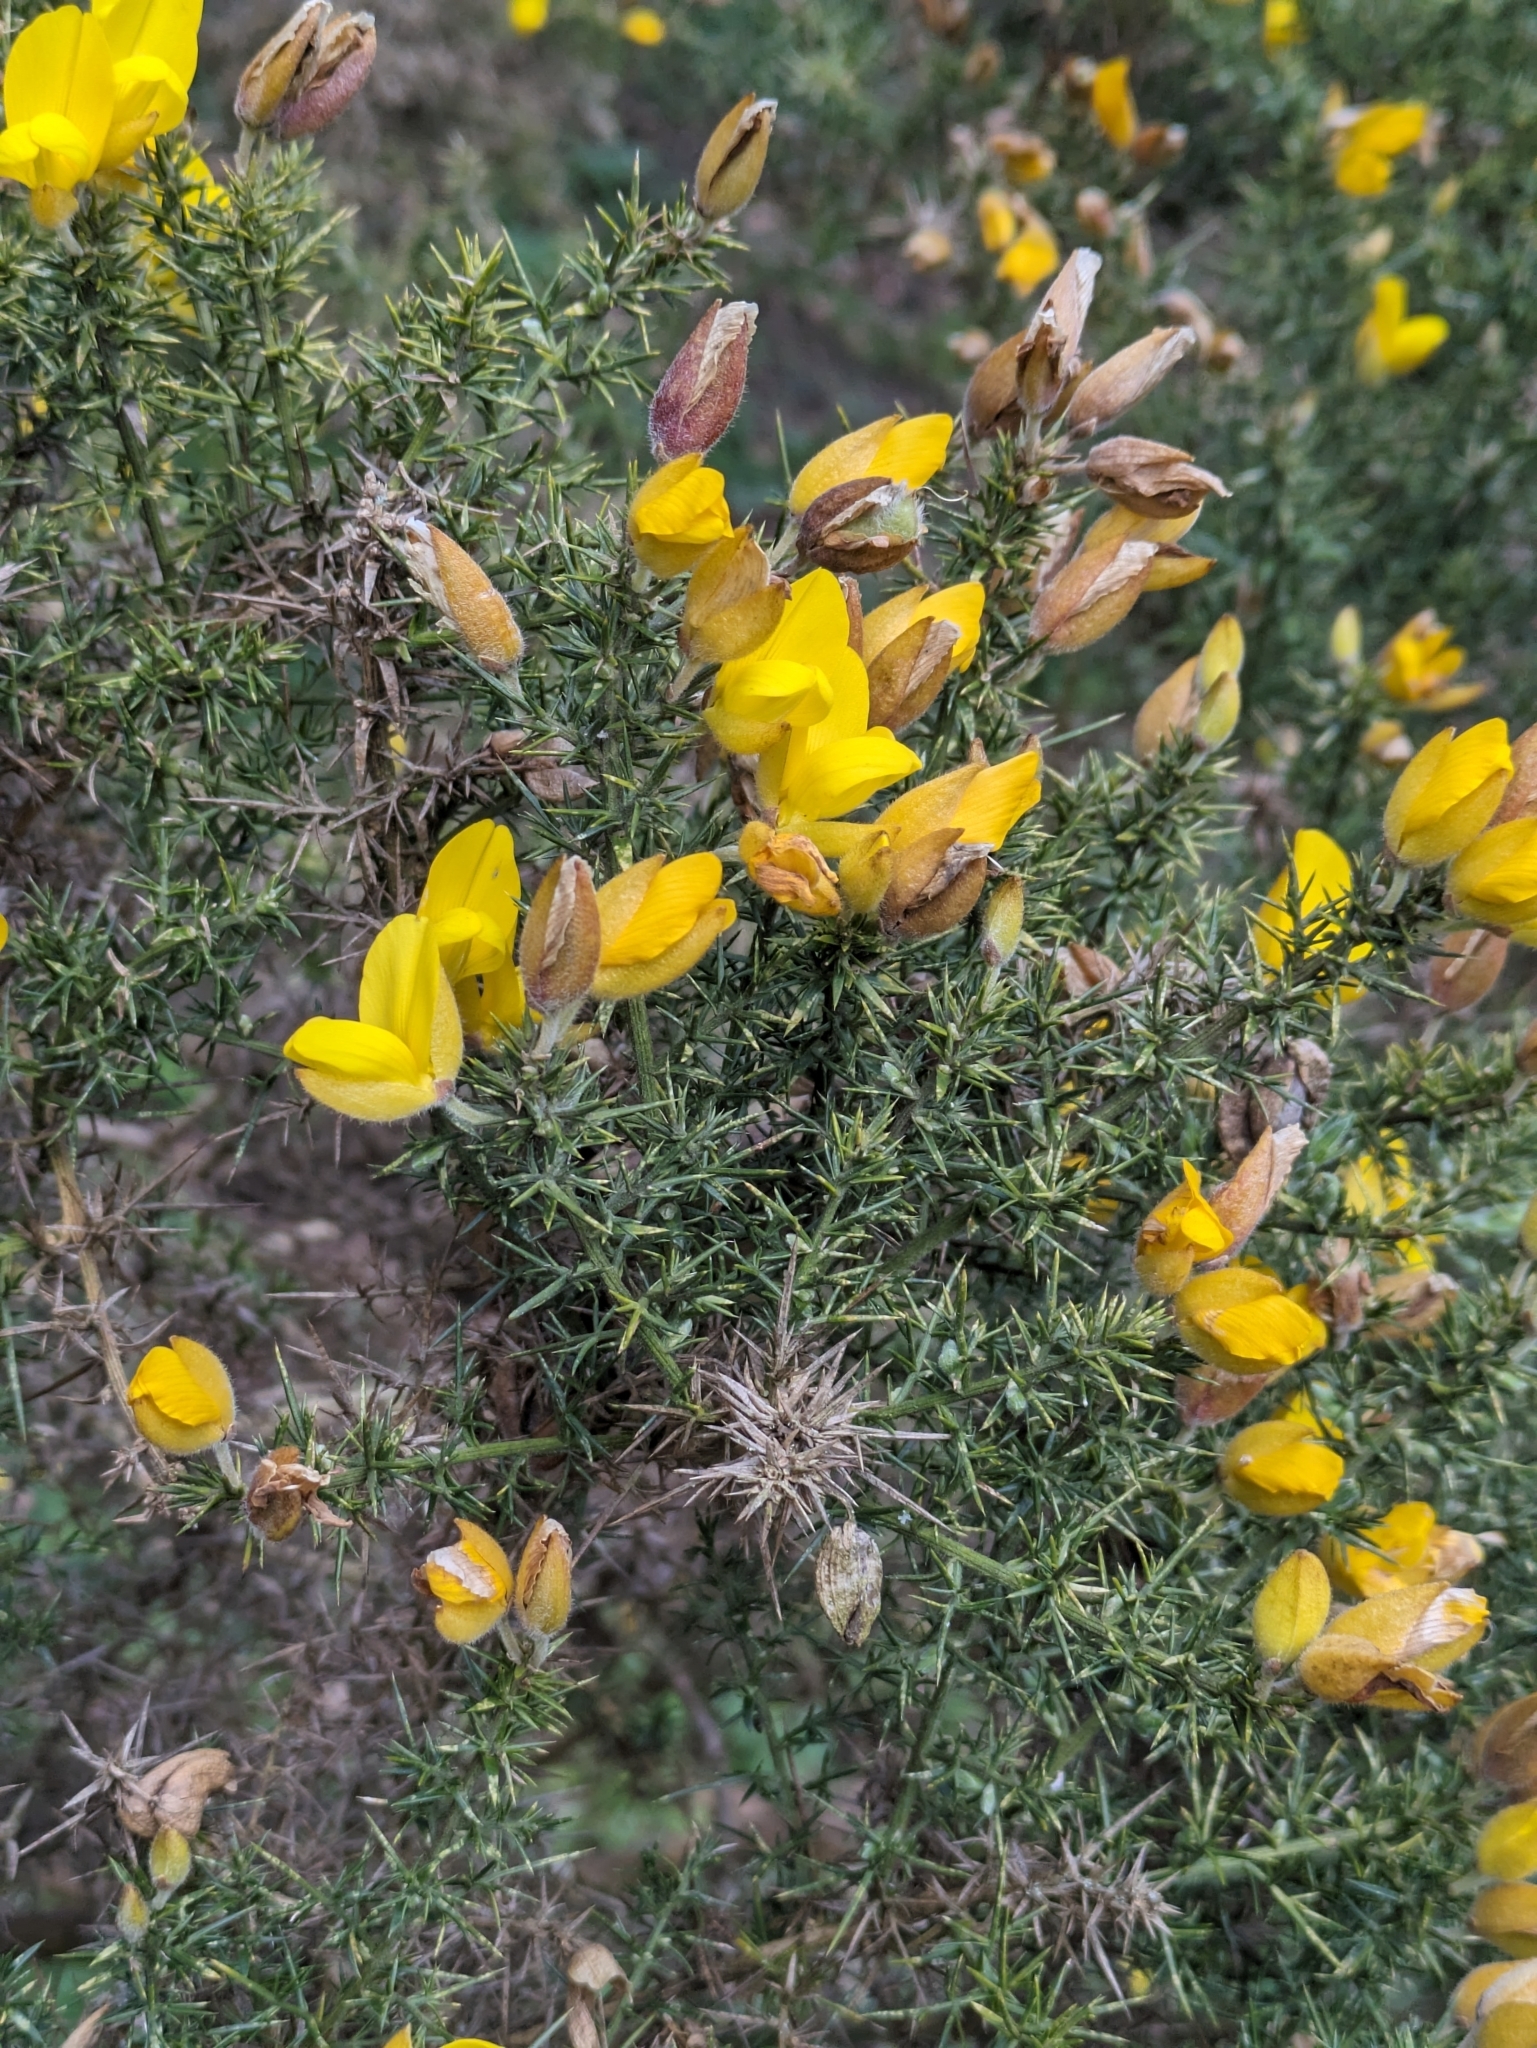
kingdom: Plantae
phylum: Tracheophyta
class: Magnoliopsida
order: Fabales
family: Fabaceae
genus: Ulex
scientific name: Ulex europaeus
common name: Common gorse
